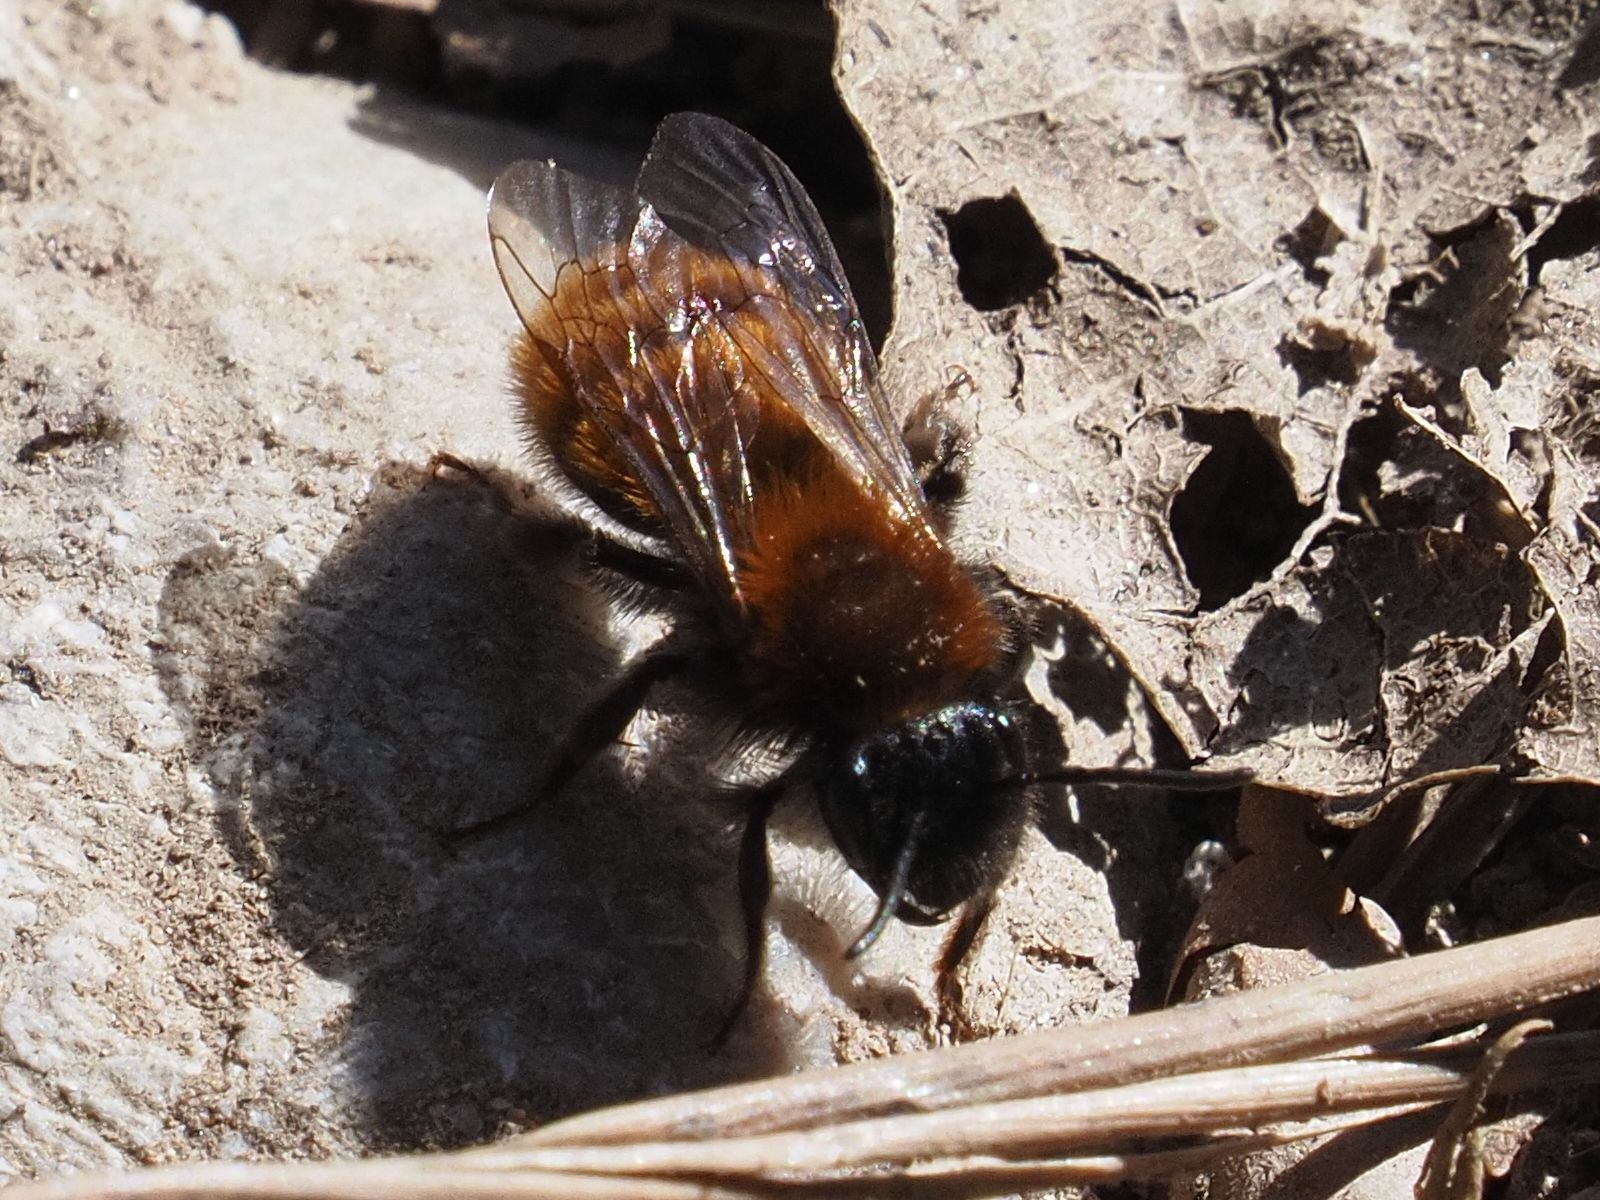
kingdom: Animalia
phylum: Arthropoda
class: Insecta
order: Hymenoptera
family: Andrenidae
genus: Andrena
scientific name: Andrena fulva
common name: Tawny mining bee
